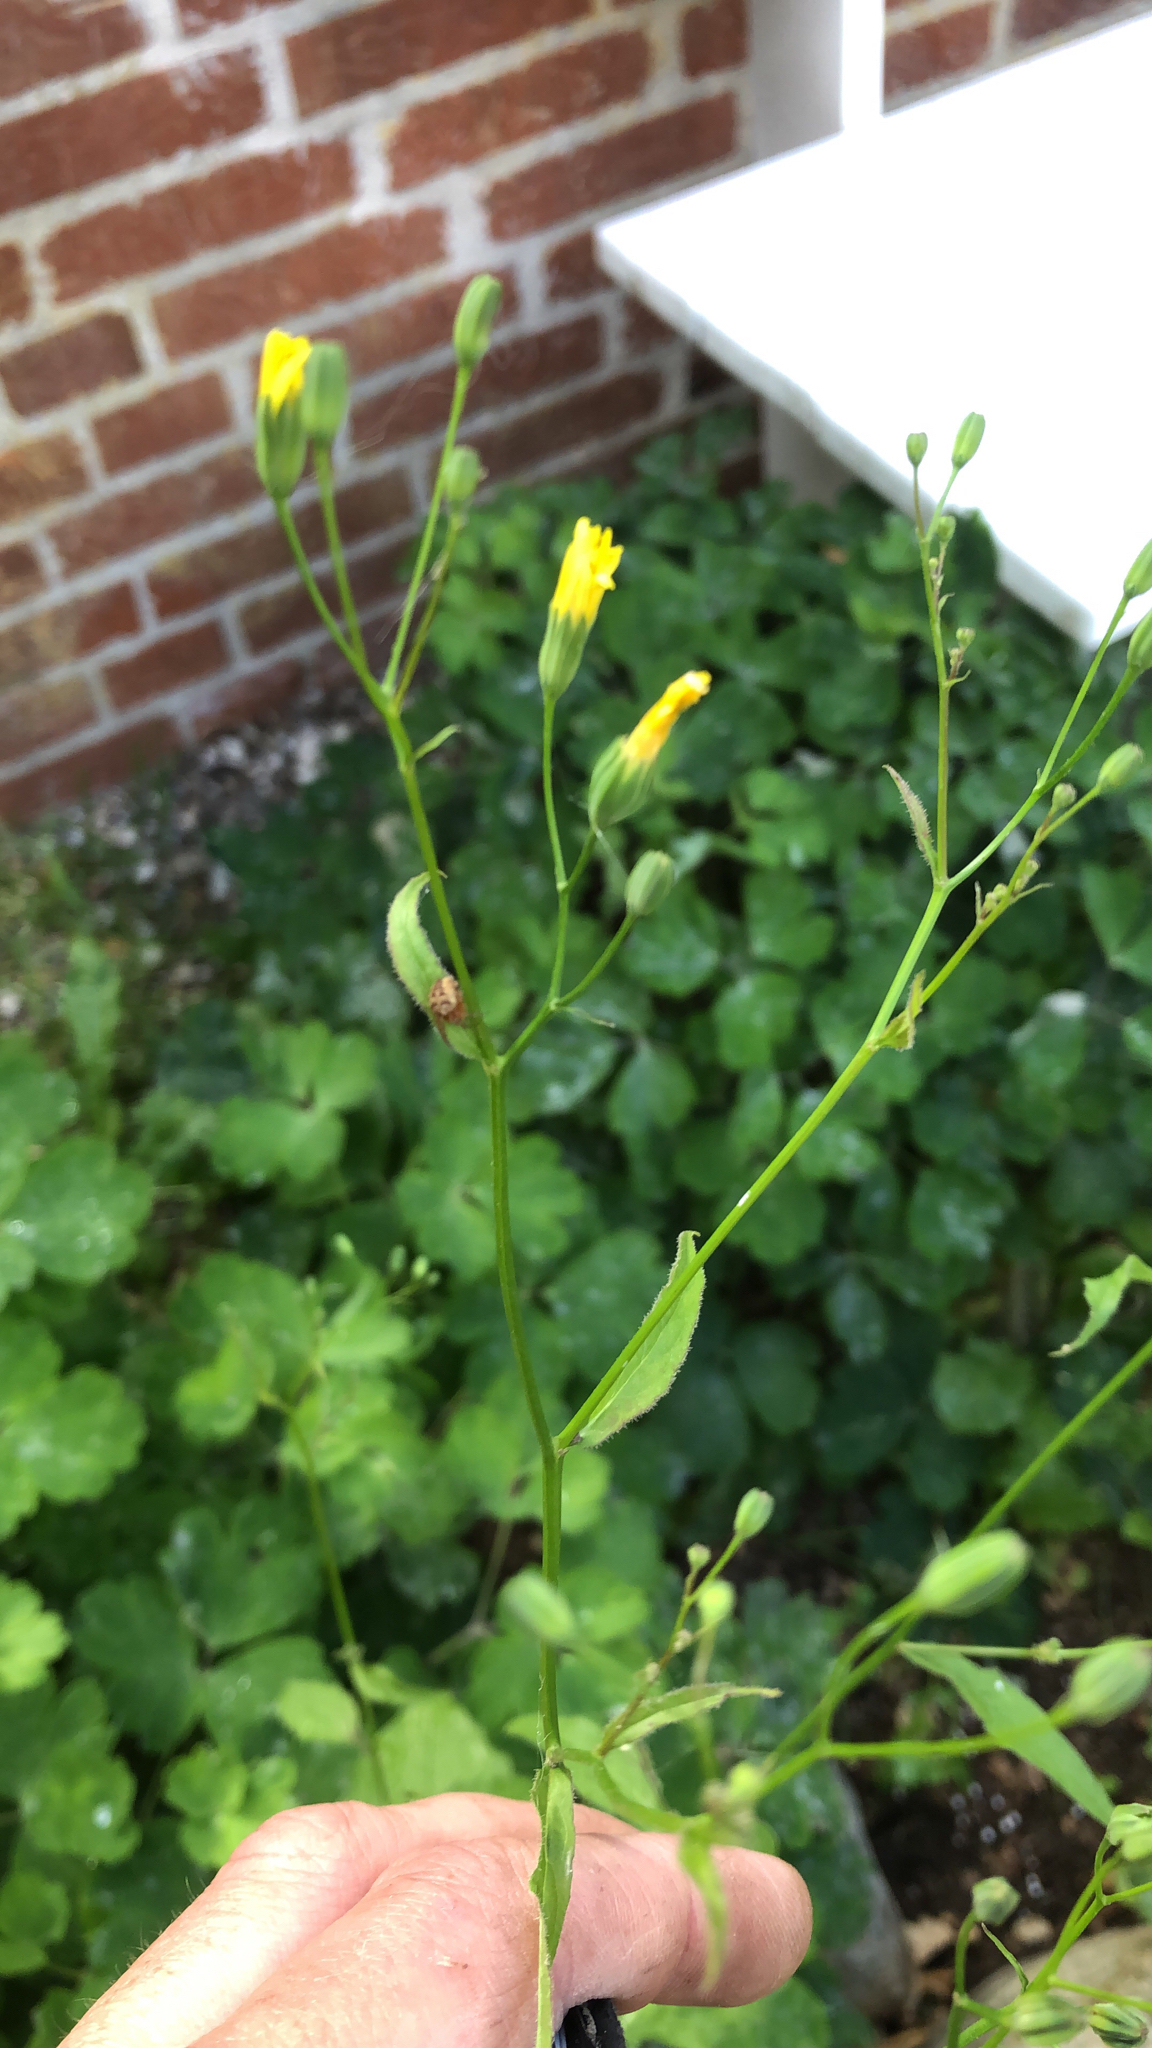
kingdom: Plantae
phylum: Tracheophyta
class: Magnoliopsida
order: Asterales
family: Asteraceae
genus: Lapsana
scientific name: Lapsana communis
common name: Nipplewort
